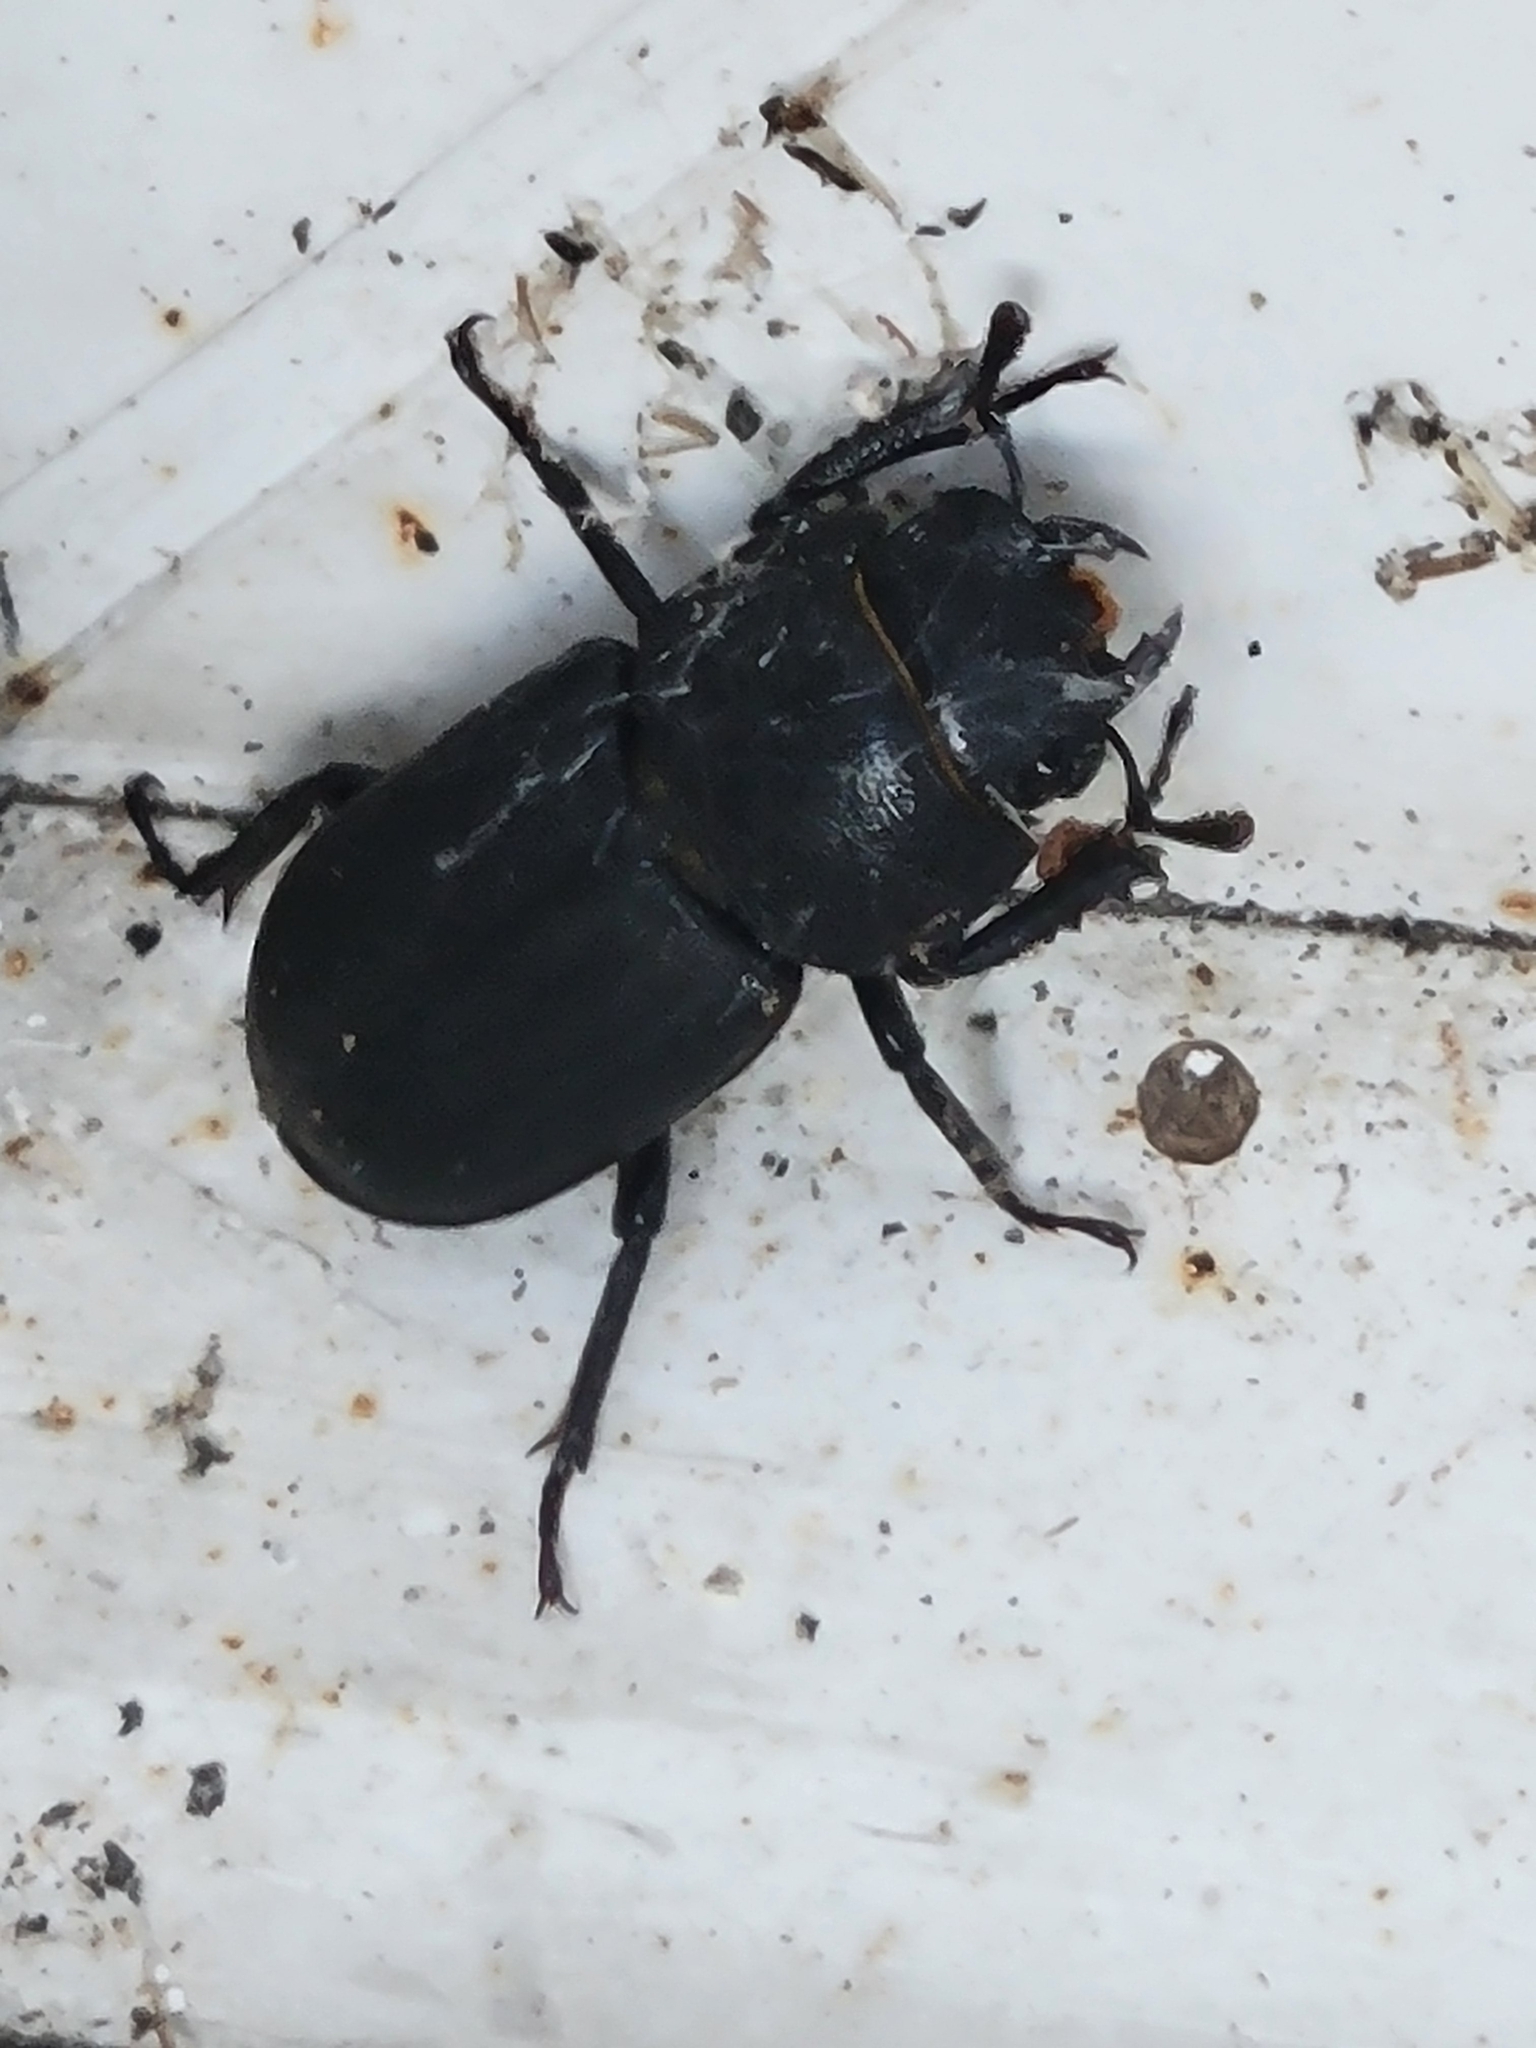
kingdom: Animalia
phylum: Arthropoda
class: Insecta
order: Coleoptera
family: Lucanidae
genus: Dorcus
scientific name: Dorcus parallelipipedus
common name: Lesser stag beetle
